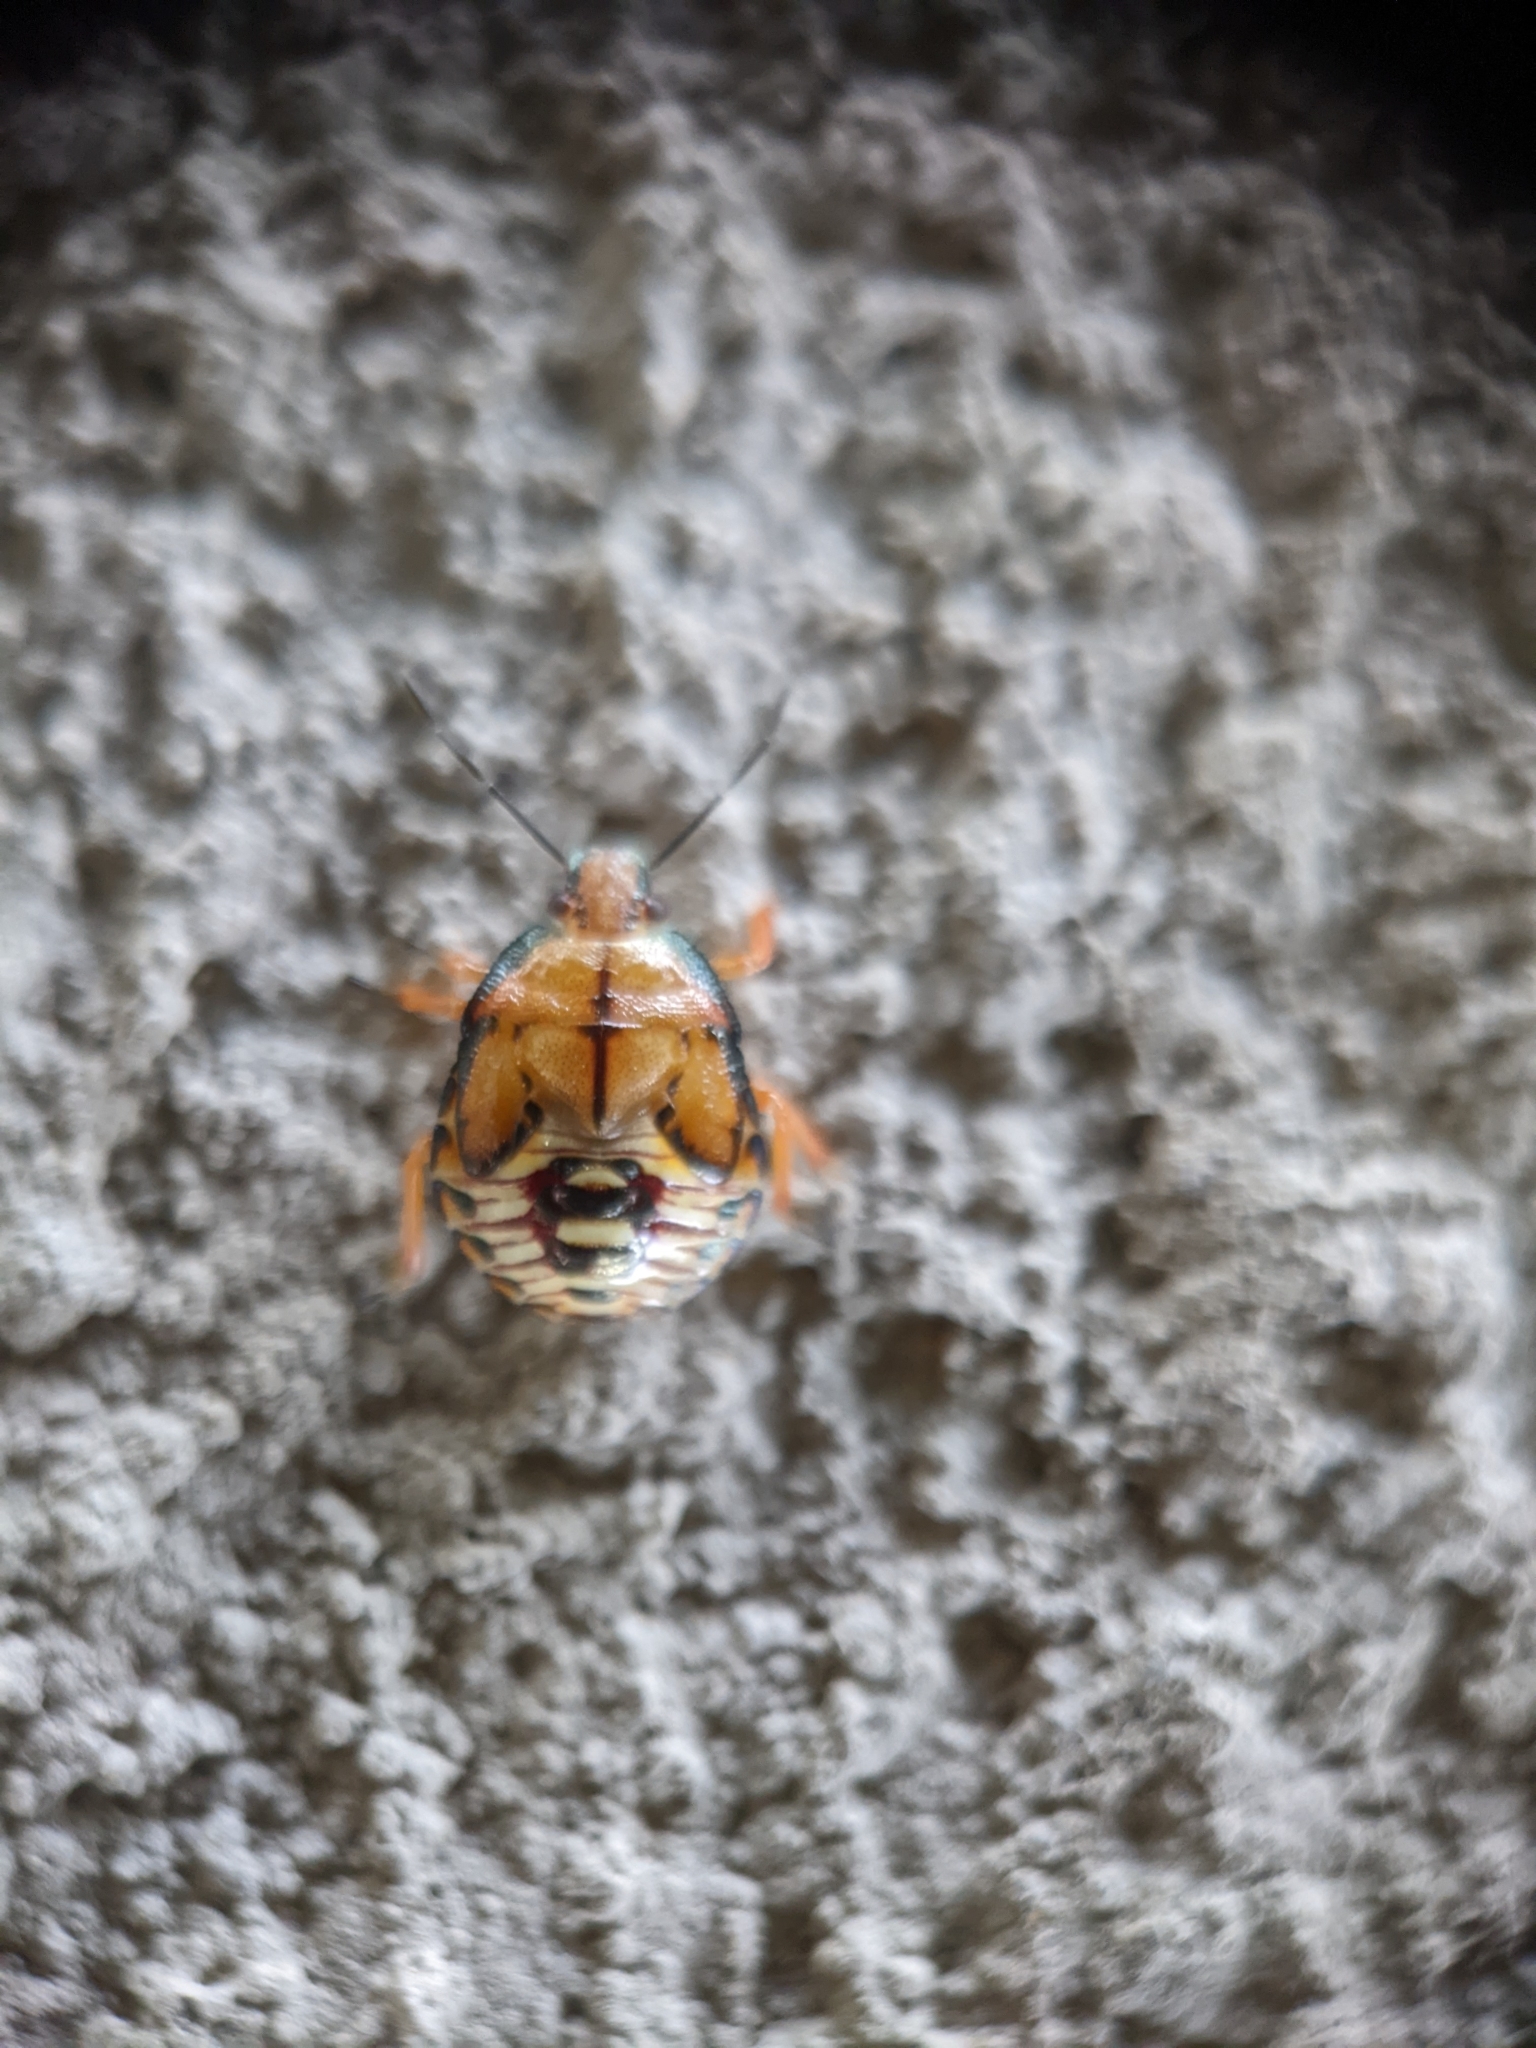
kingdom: Animalia
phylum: Arthropoda
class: Insecta
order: Hemiptera
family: Pentatomidae
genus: Podisus
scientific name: Podisus
